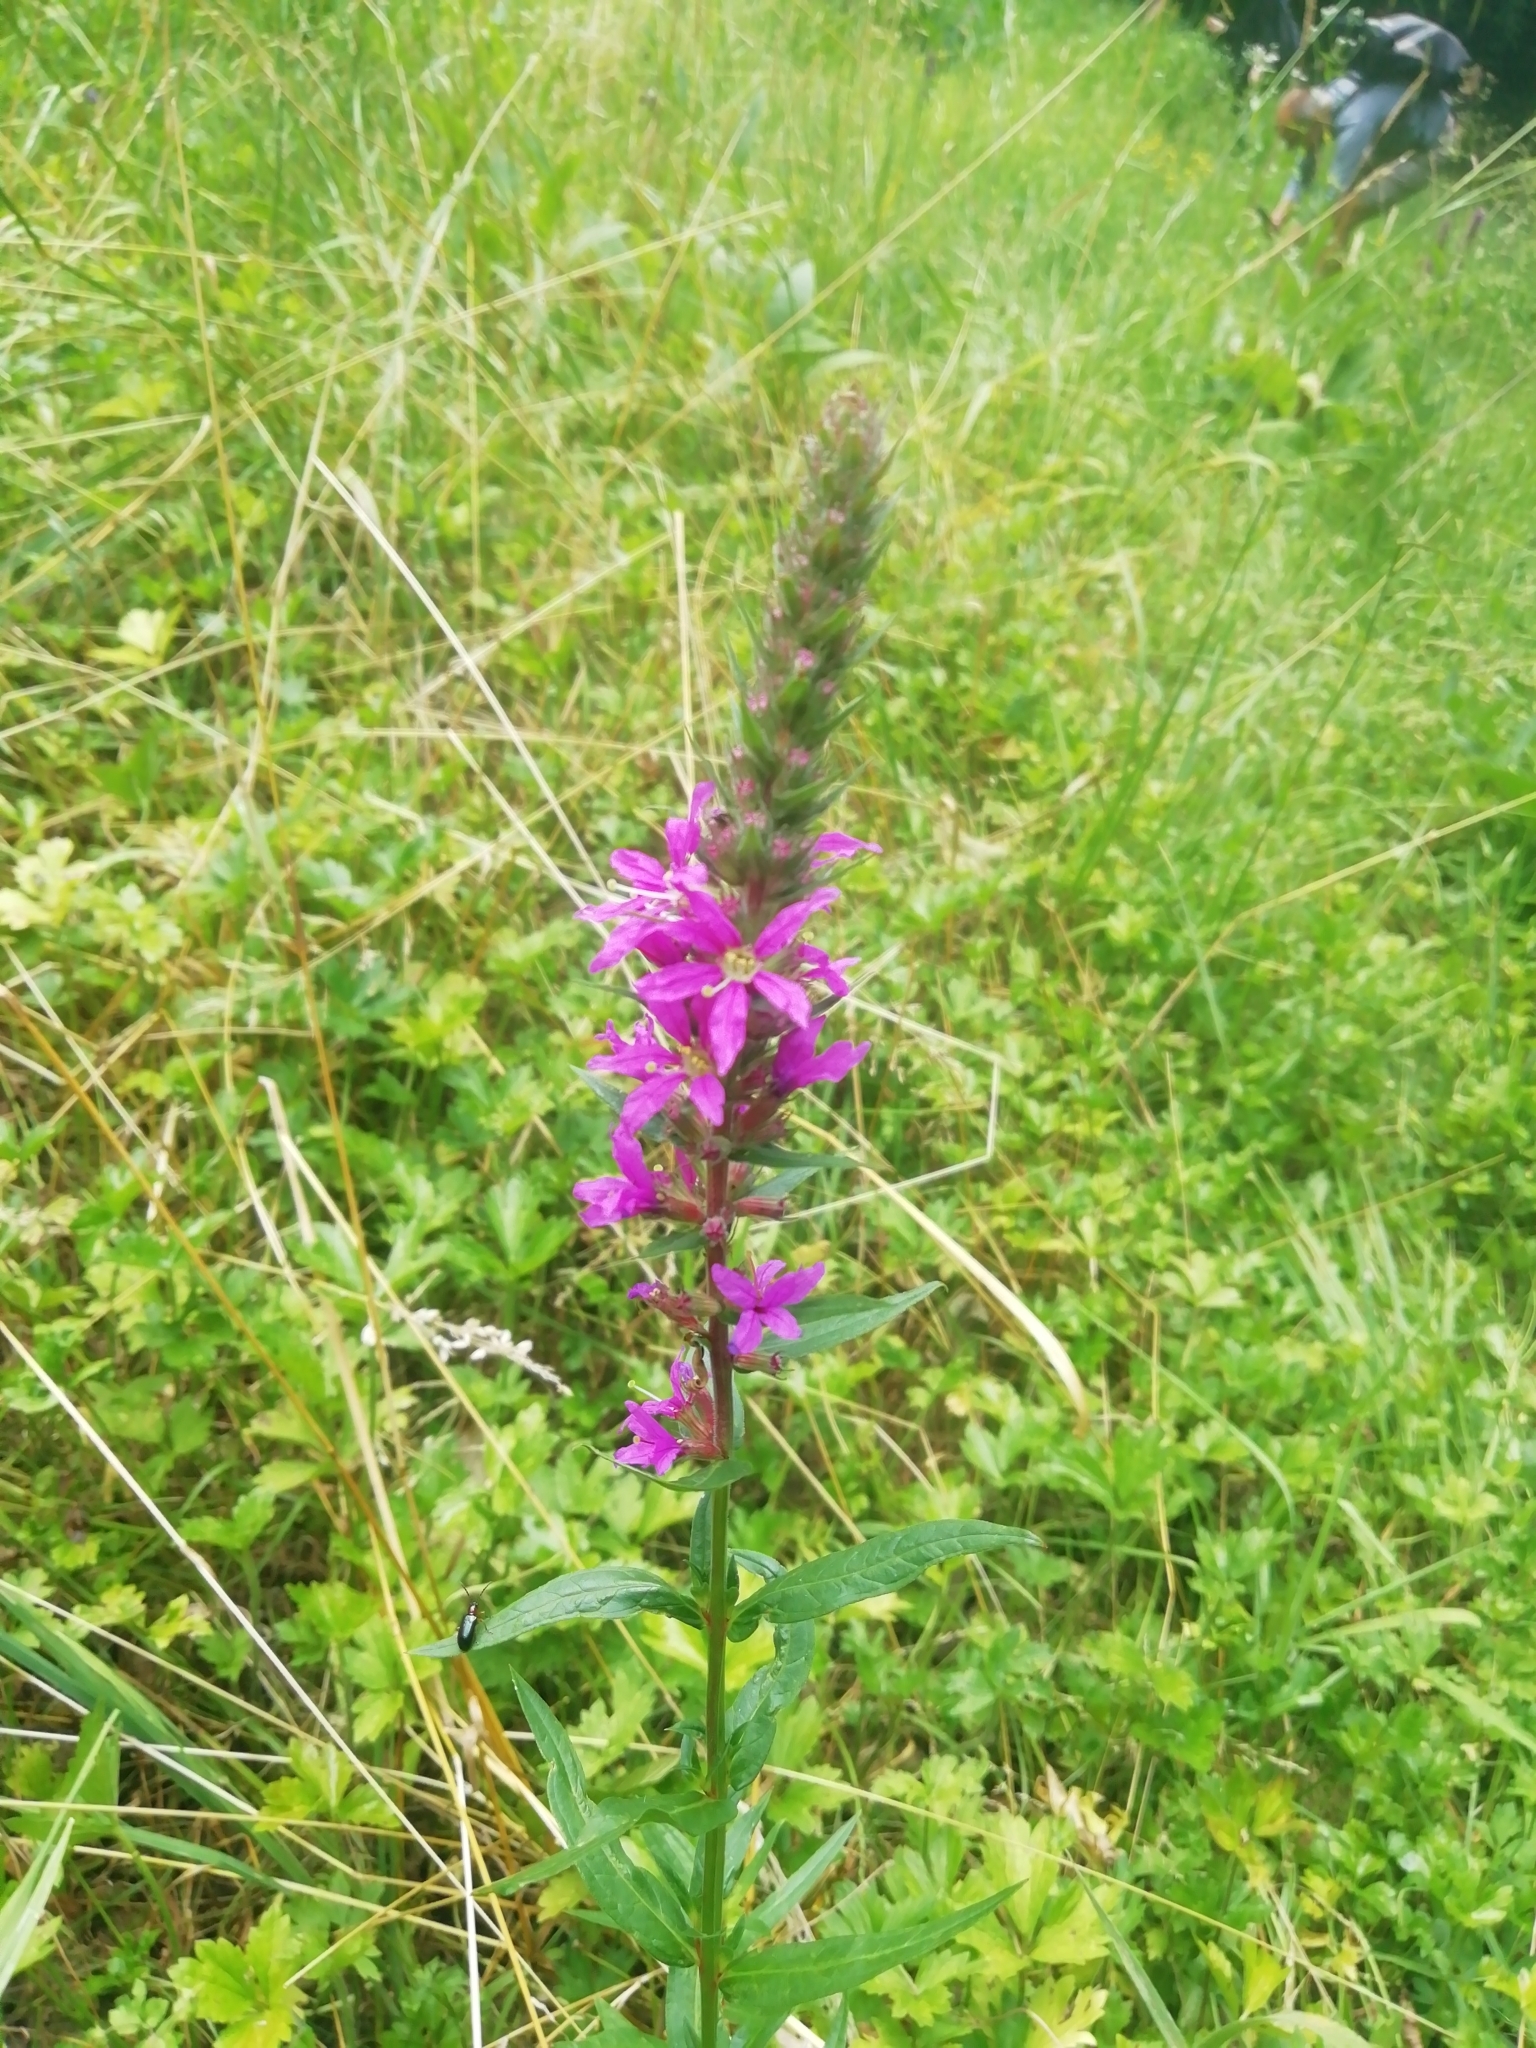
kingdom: Plantae
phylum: Tracheophyta
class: Magnoliopsida
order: Myrtales
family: Lythraceae
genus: Lythrum
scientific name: Lythrum salicaria
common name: Purple loosestrife
